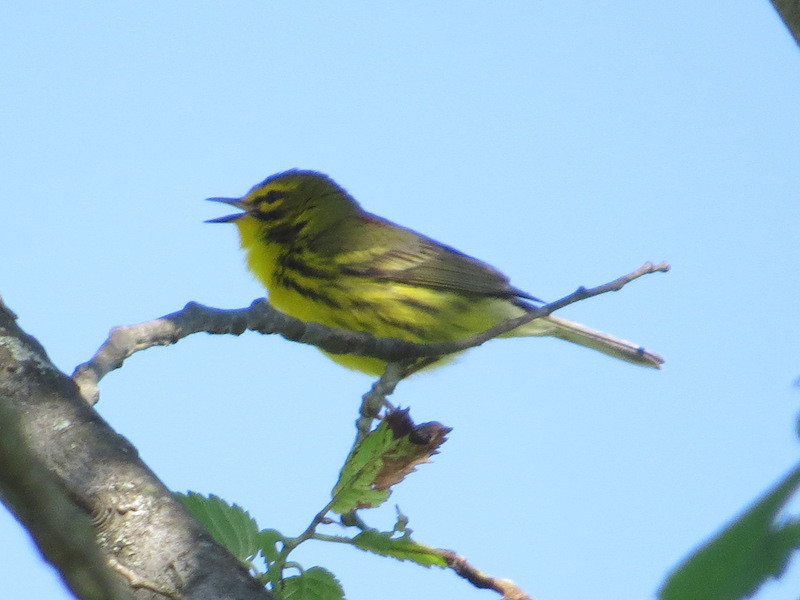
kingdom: Animalia
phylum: Chordata
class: Aves
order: Passeriformes
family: Parulidae
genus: Setophaga
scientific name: Setophaga discolor
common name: Prairie warbler
